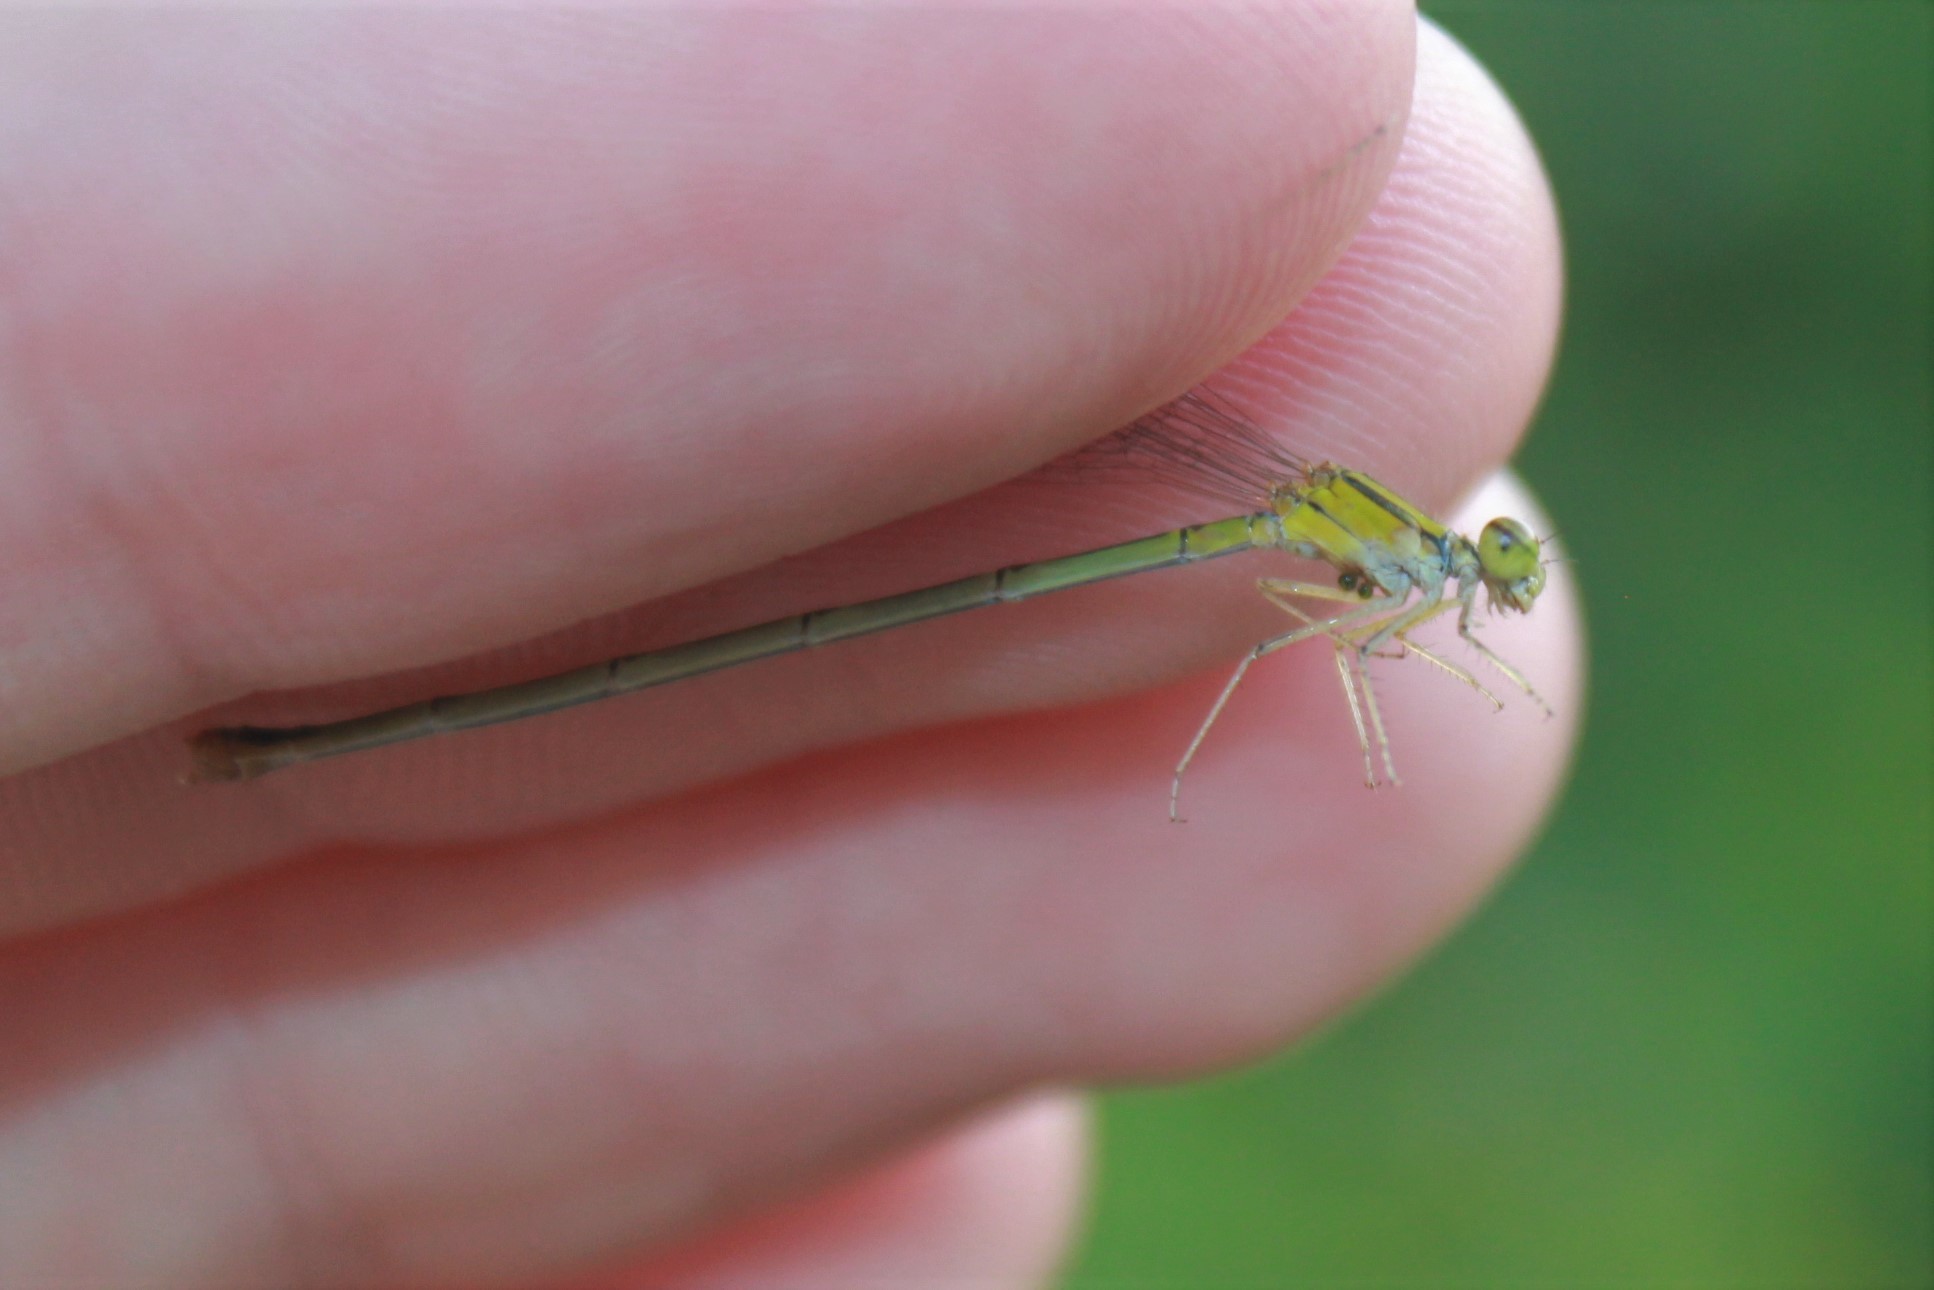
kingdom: Animalia
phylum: Arthropoda
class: Insecta
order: Odonata
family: Coenagrionidae
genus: Enallagma
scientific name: Enallagma signatum
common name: Orange bluet
